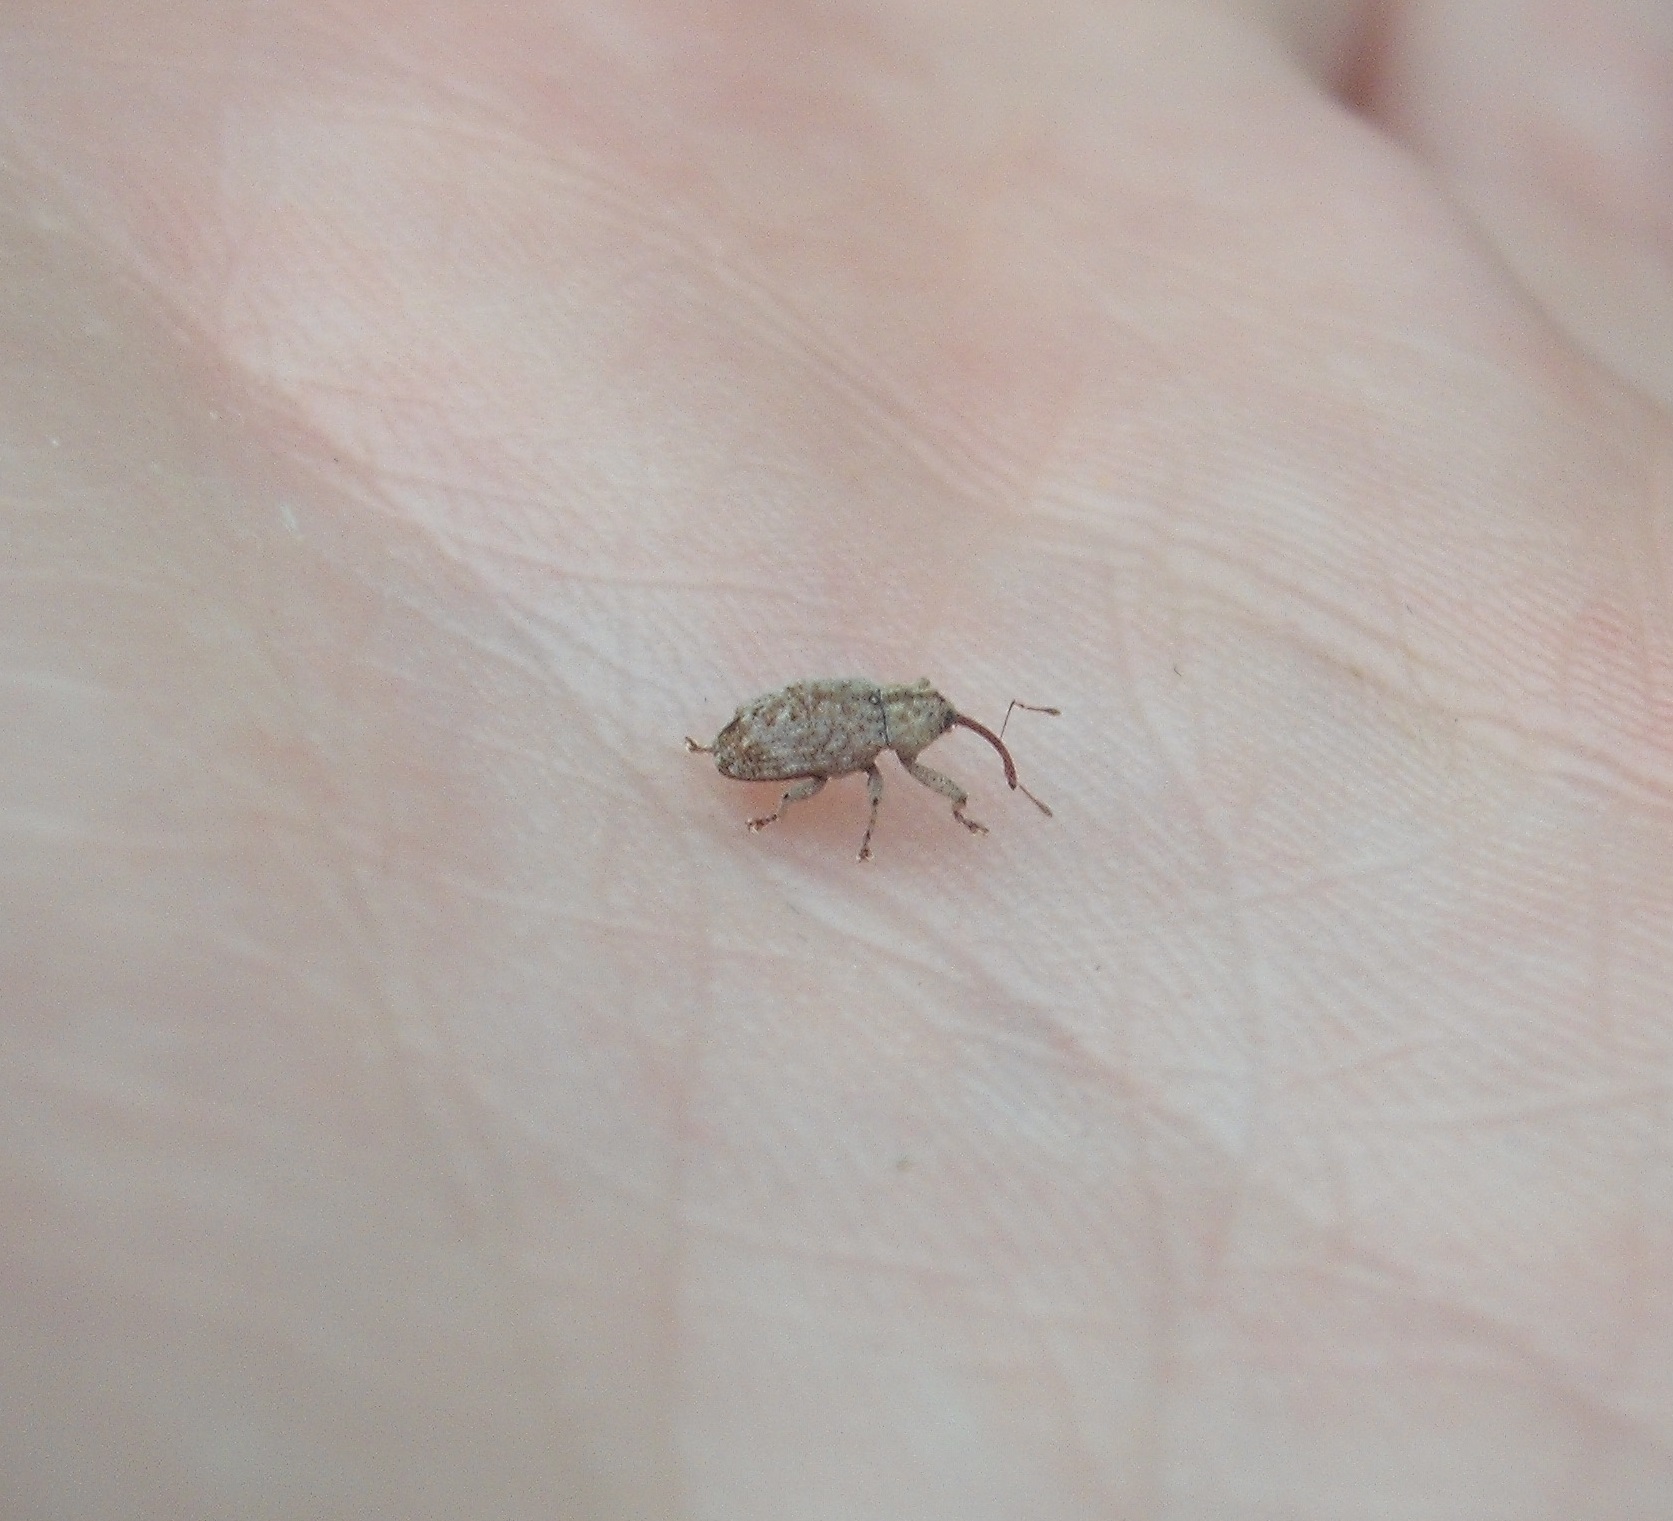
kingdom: Animalia
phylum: Arthropoda
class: Insecta
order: Coleoptera
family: Curculionidae
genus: Emplesis
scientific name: Emplesis bifoveata
